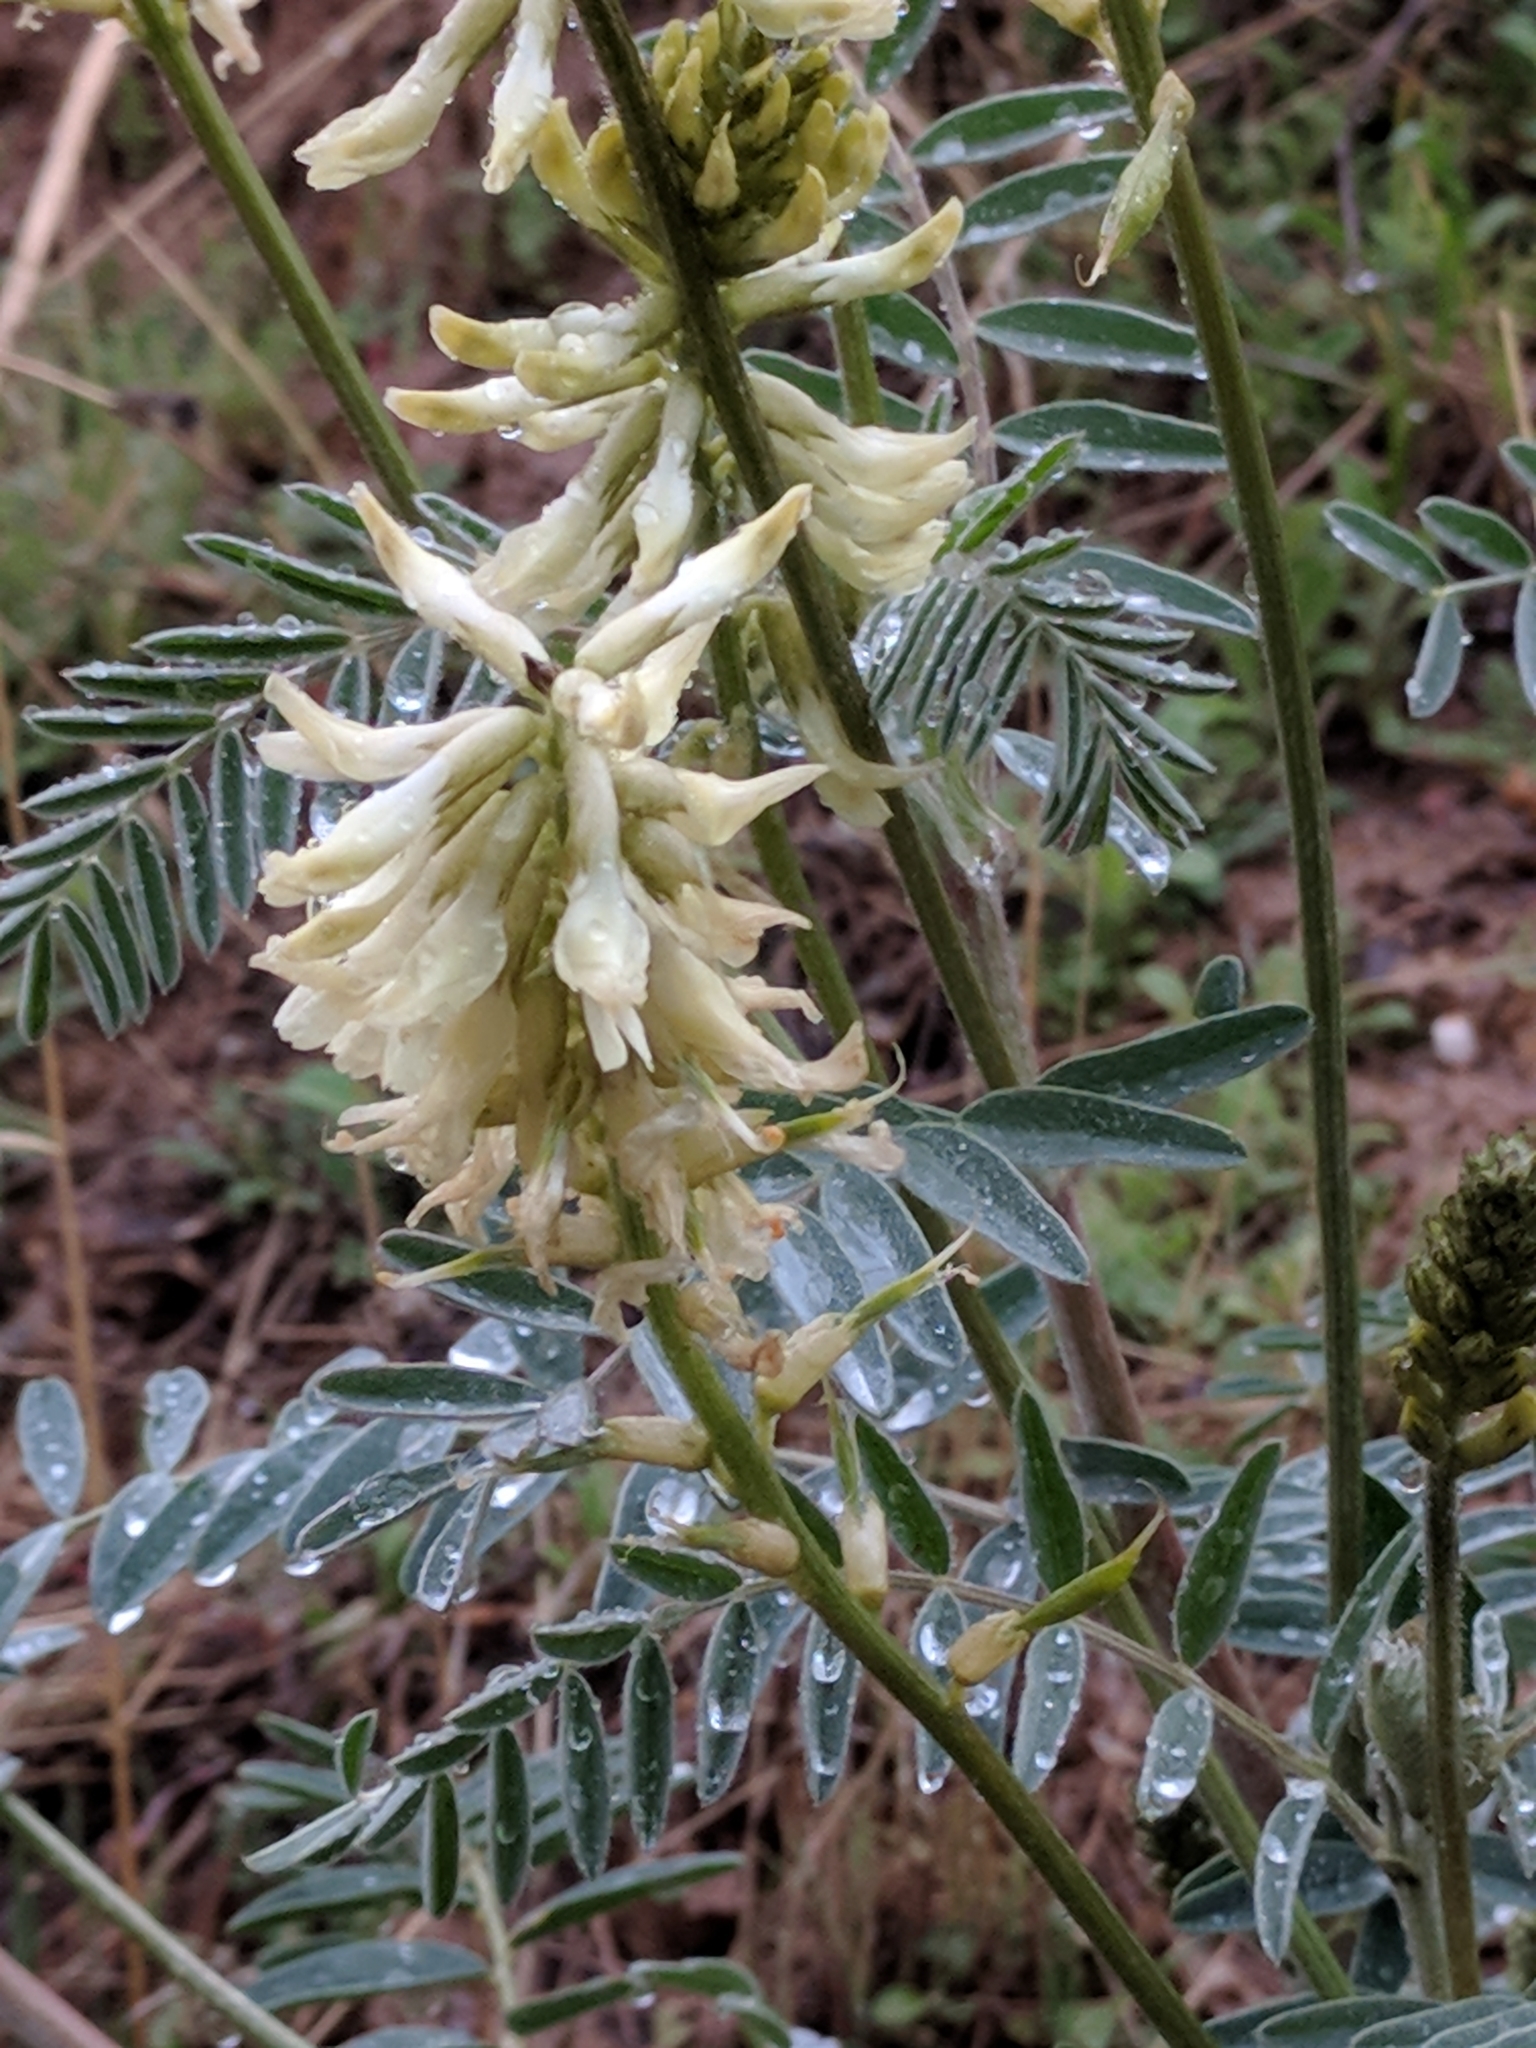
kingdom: Plantae
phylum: Tracheophyta
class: Magnoliopsida
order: Fabales
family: Fabaceae
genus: Astragalus
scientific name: Astragalus oxyphysus
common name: Stanislaus milk-vetch
